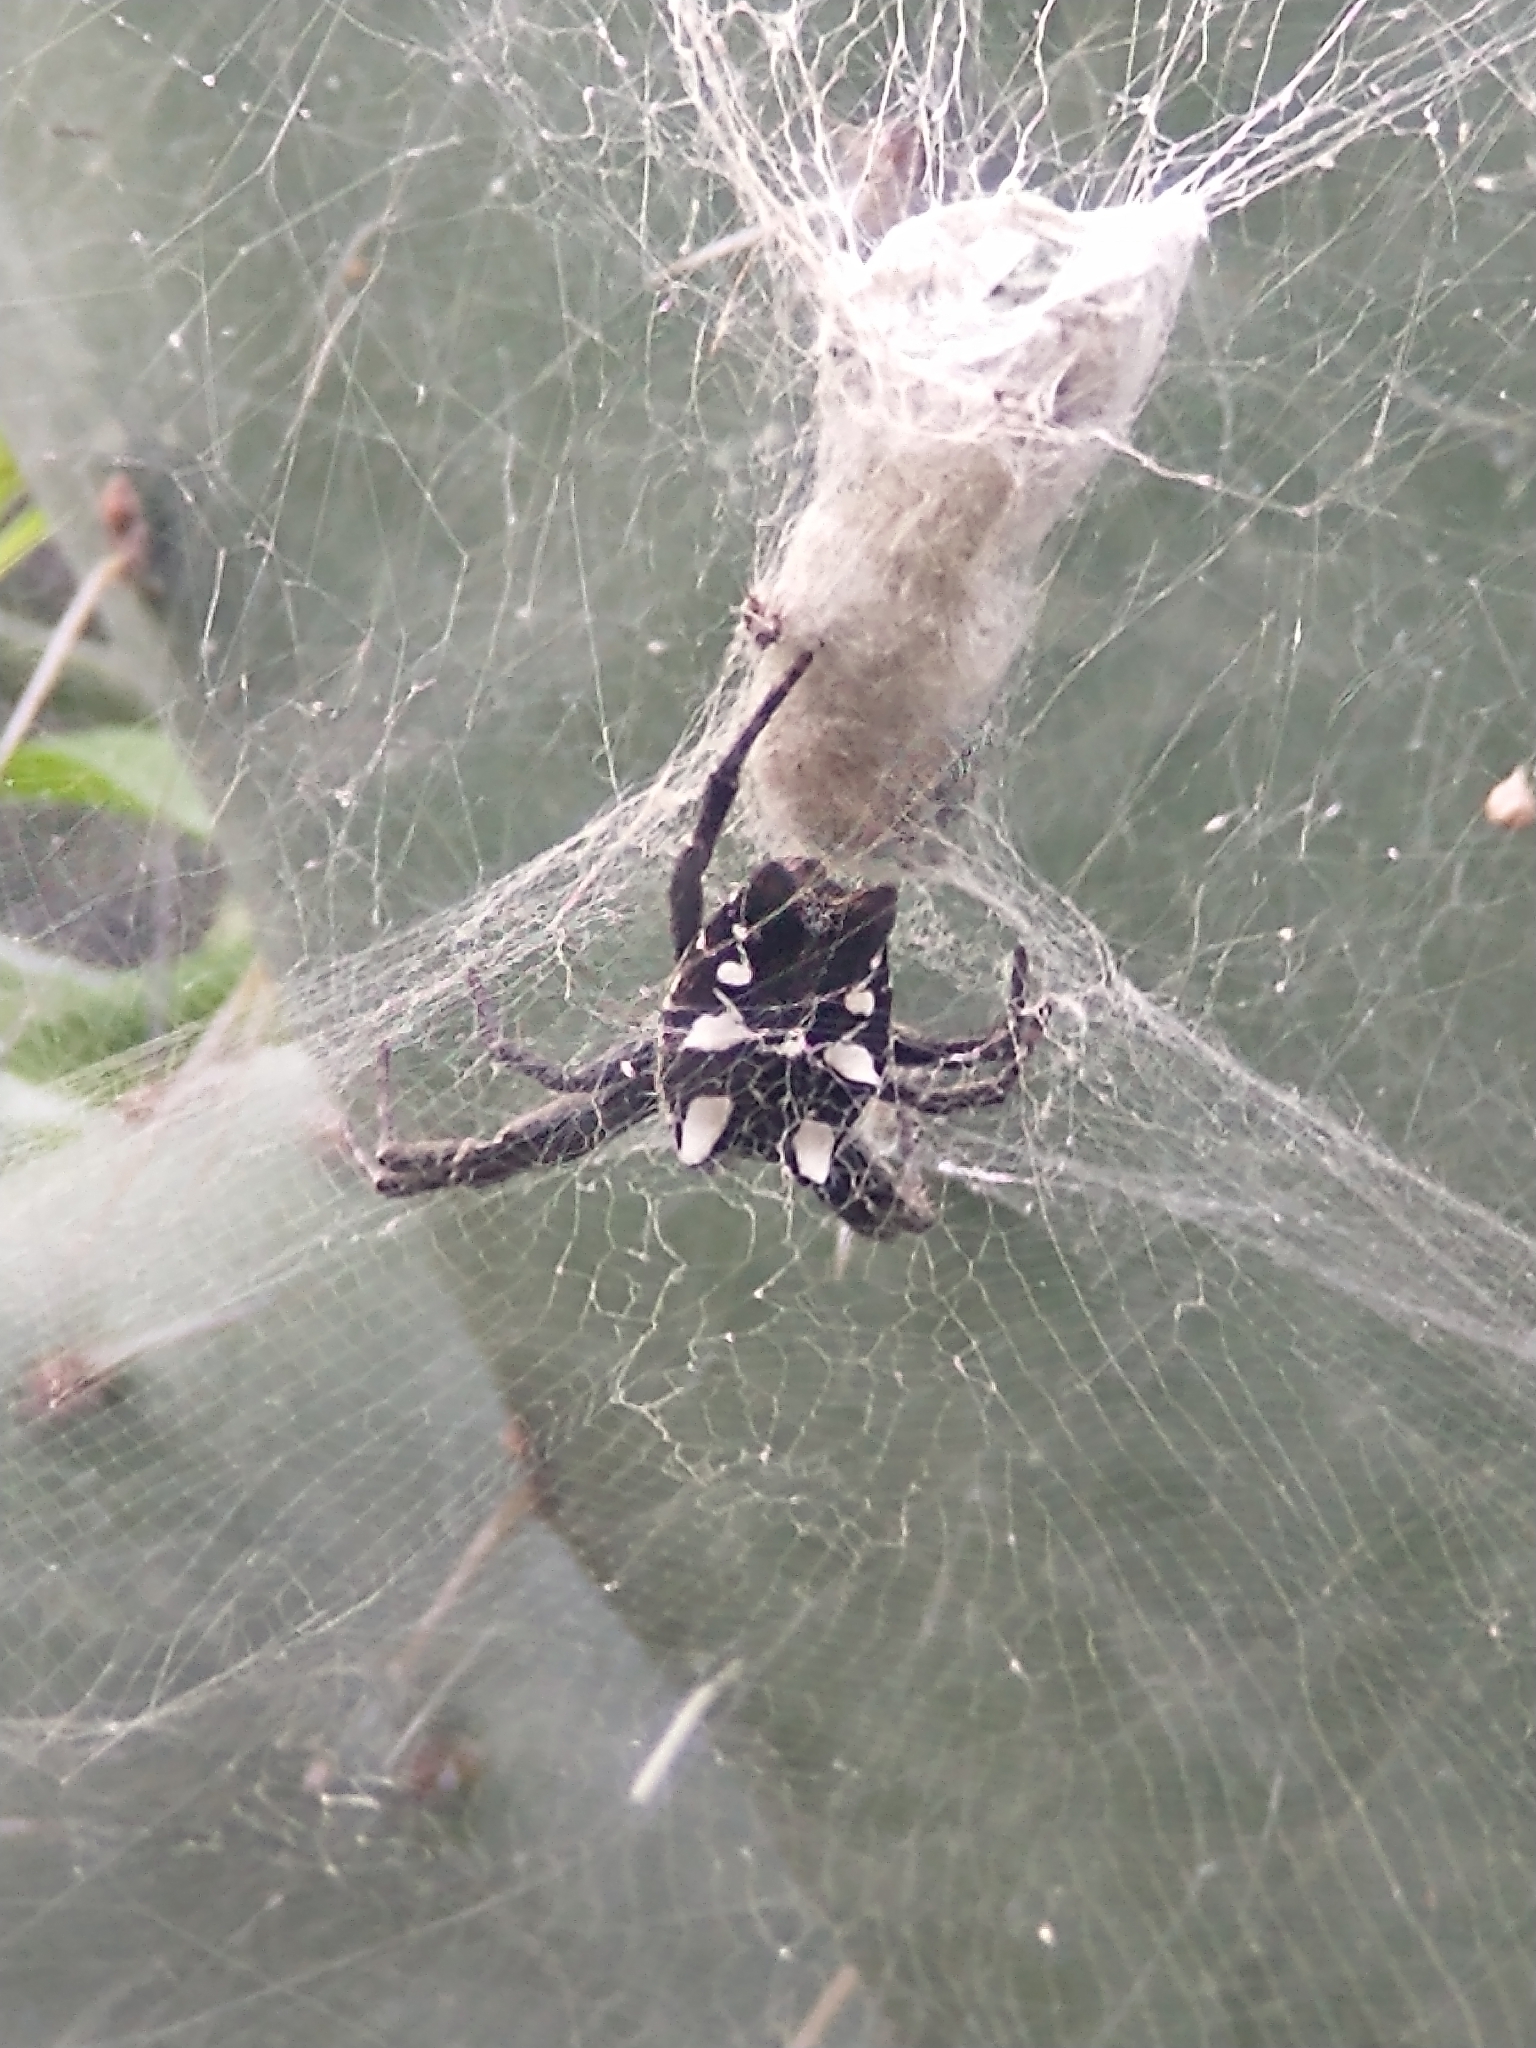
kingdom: Animalia
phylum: Arthropoda
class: Arachnida
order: Araneae
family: Araneidae
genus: Cyrtophora
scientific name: Cyrtophora citricola
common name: Orb weavers
